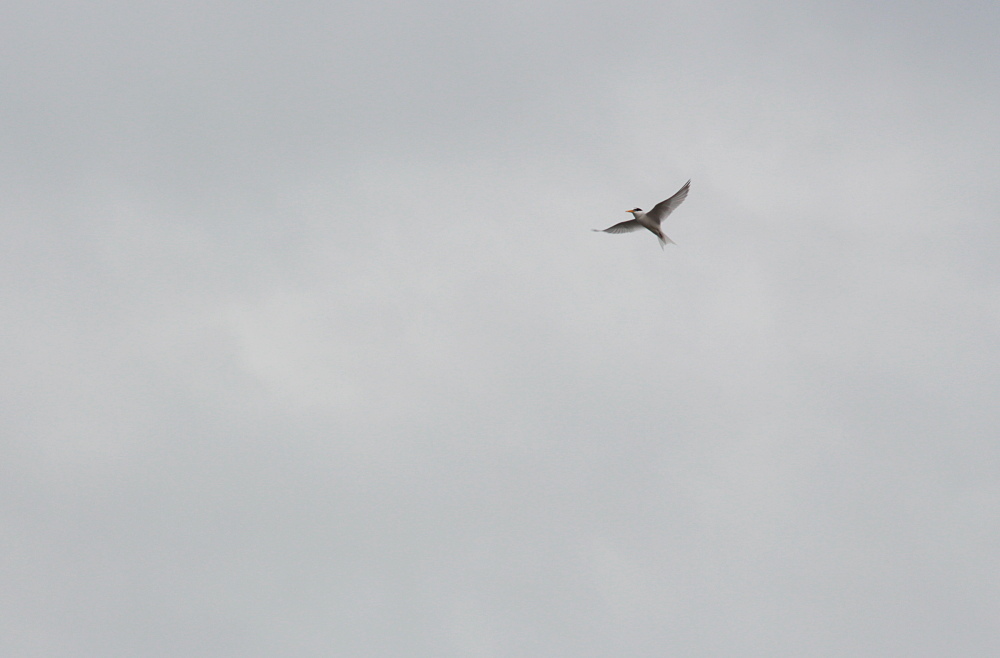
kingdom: Animalia
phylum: Chordata
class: Aves
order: Charadriiformes
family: Laridae
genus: Sternula
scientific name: Sternula albifrons
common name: Little tern
